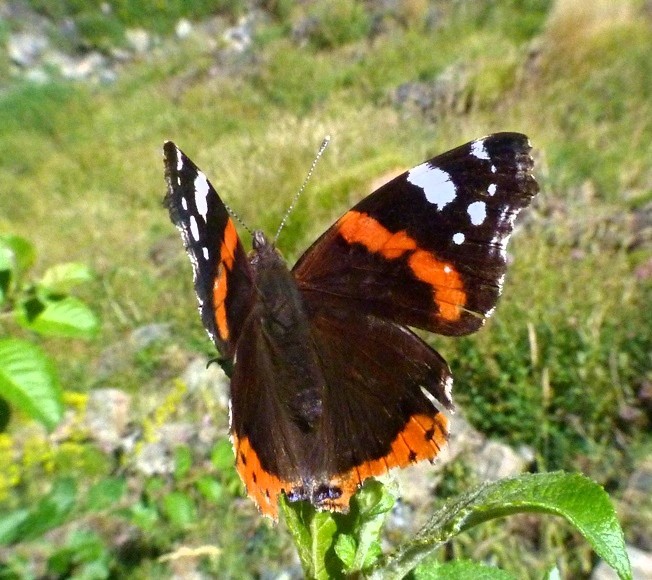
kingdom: Animalia
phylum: Arthropoda
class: Insecta
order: Lepidoptera
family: Nymphalidae
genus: Vanessa
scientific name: Vanessa atalanta
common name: Red admiral
